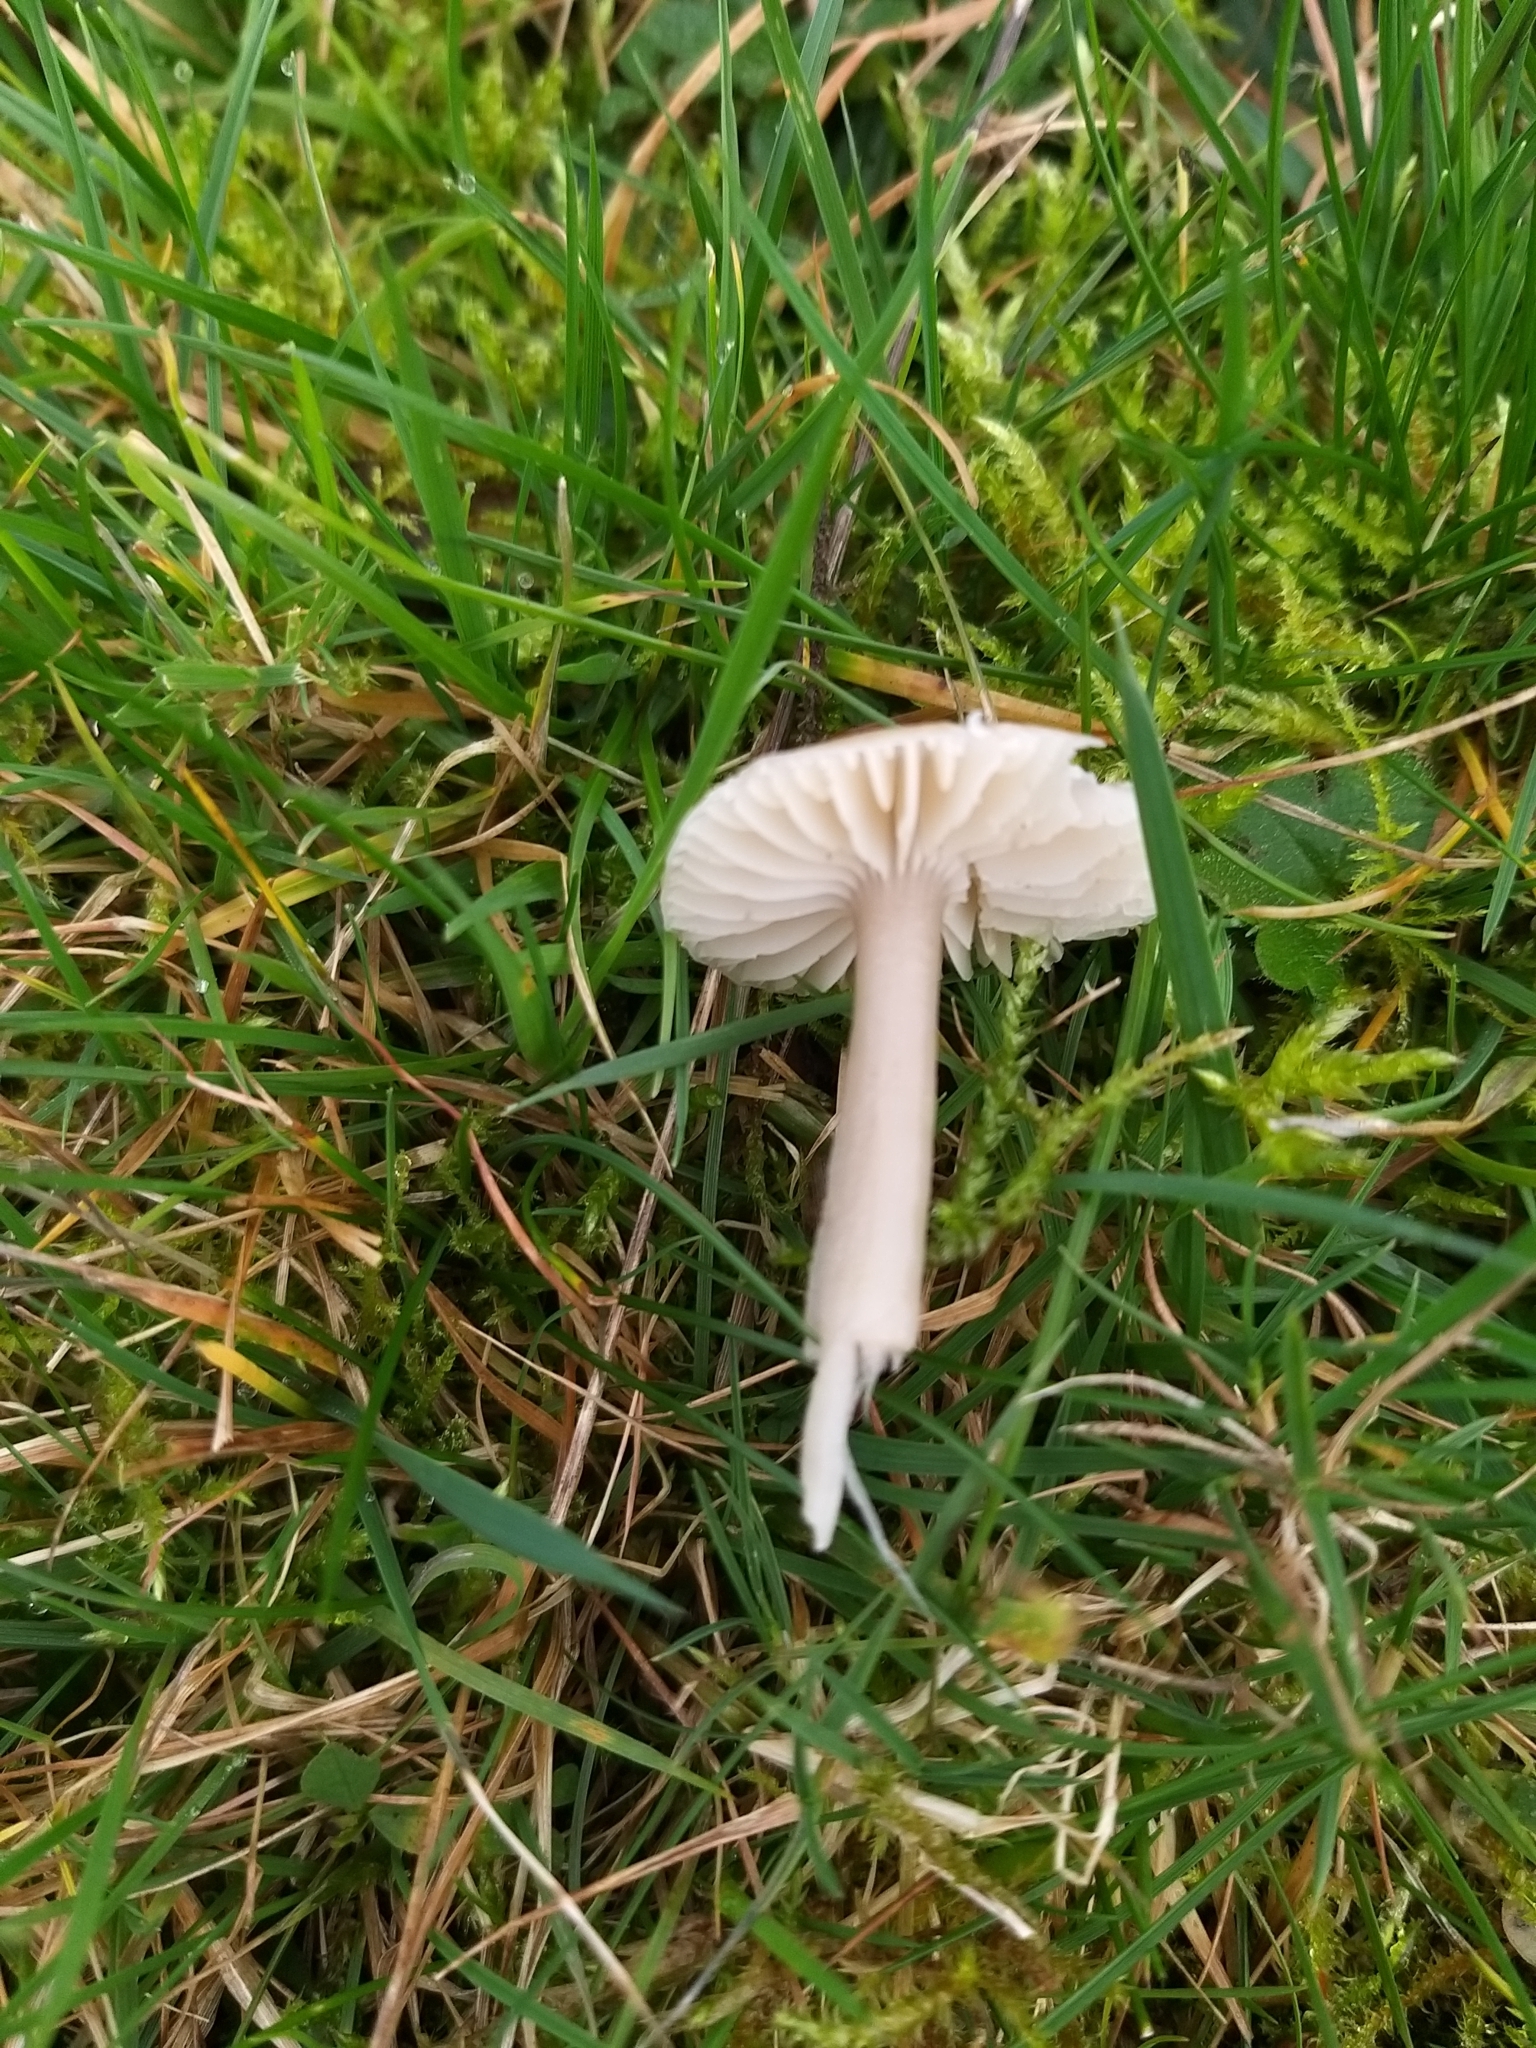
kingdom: Fungi
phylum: Basidiomycota
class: Agaricomycetes
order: Agaricales
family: Hygrophoraceae
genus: Gliophorus
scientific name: Gliophorus irrigatus
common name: Slimy waxcap
